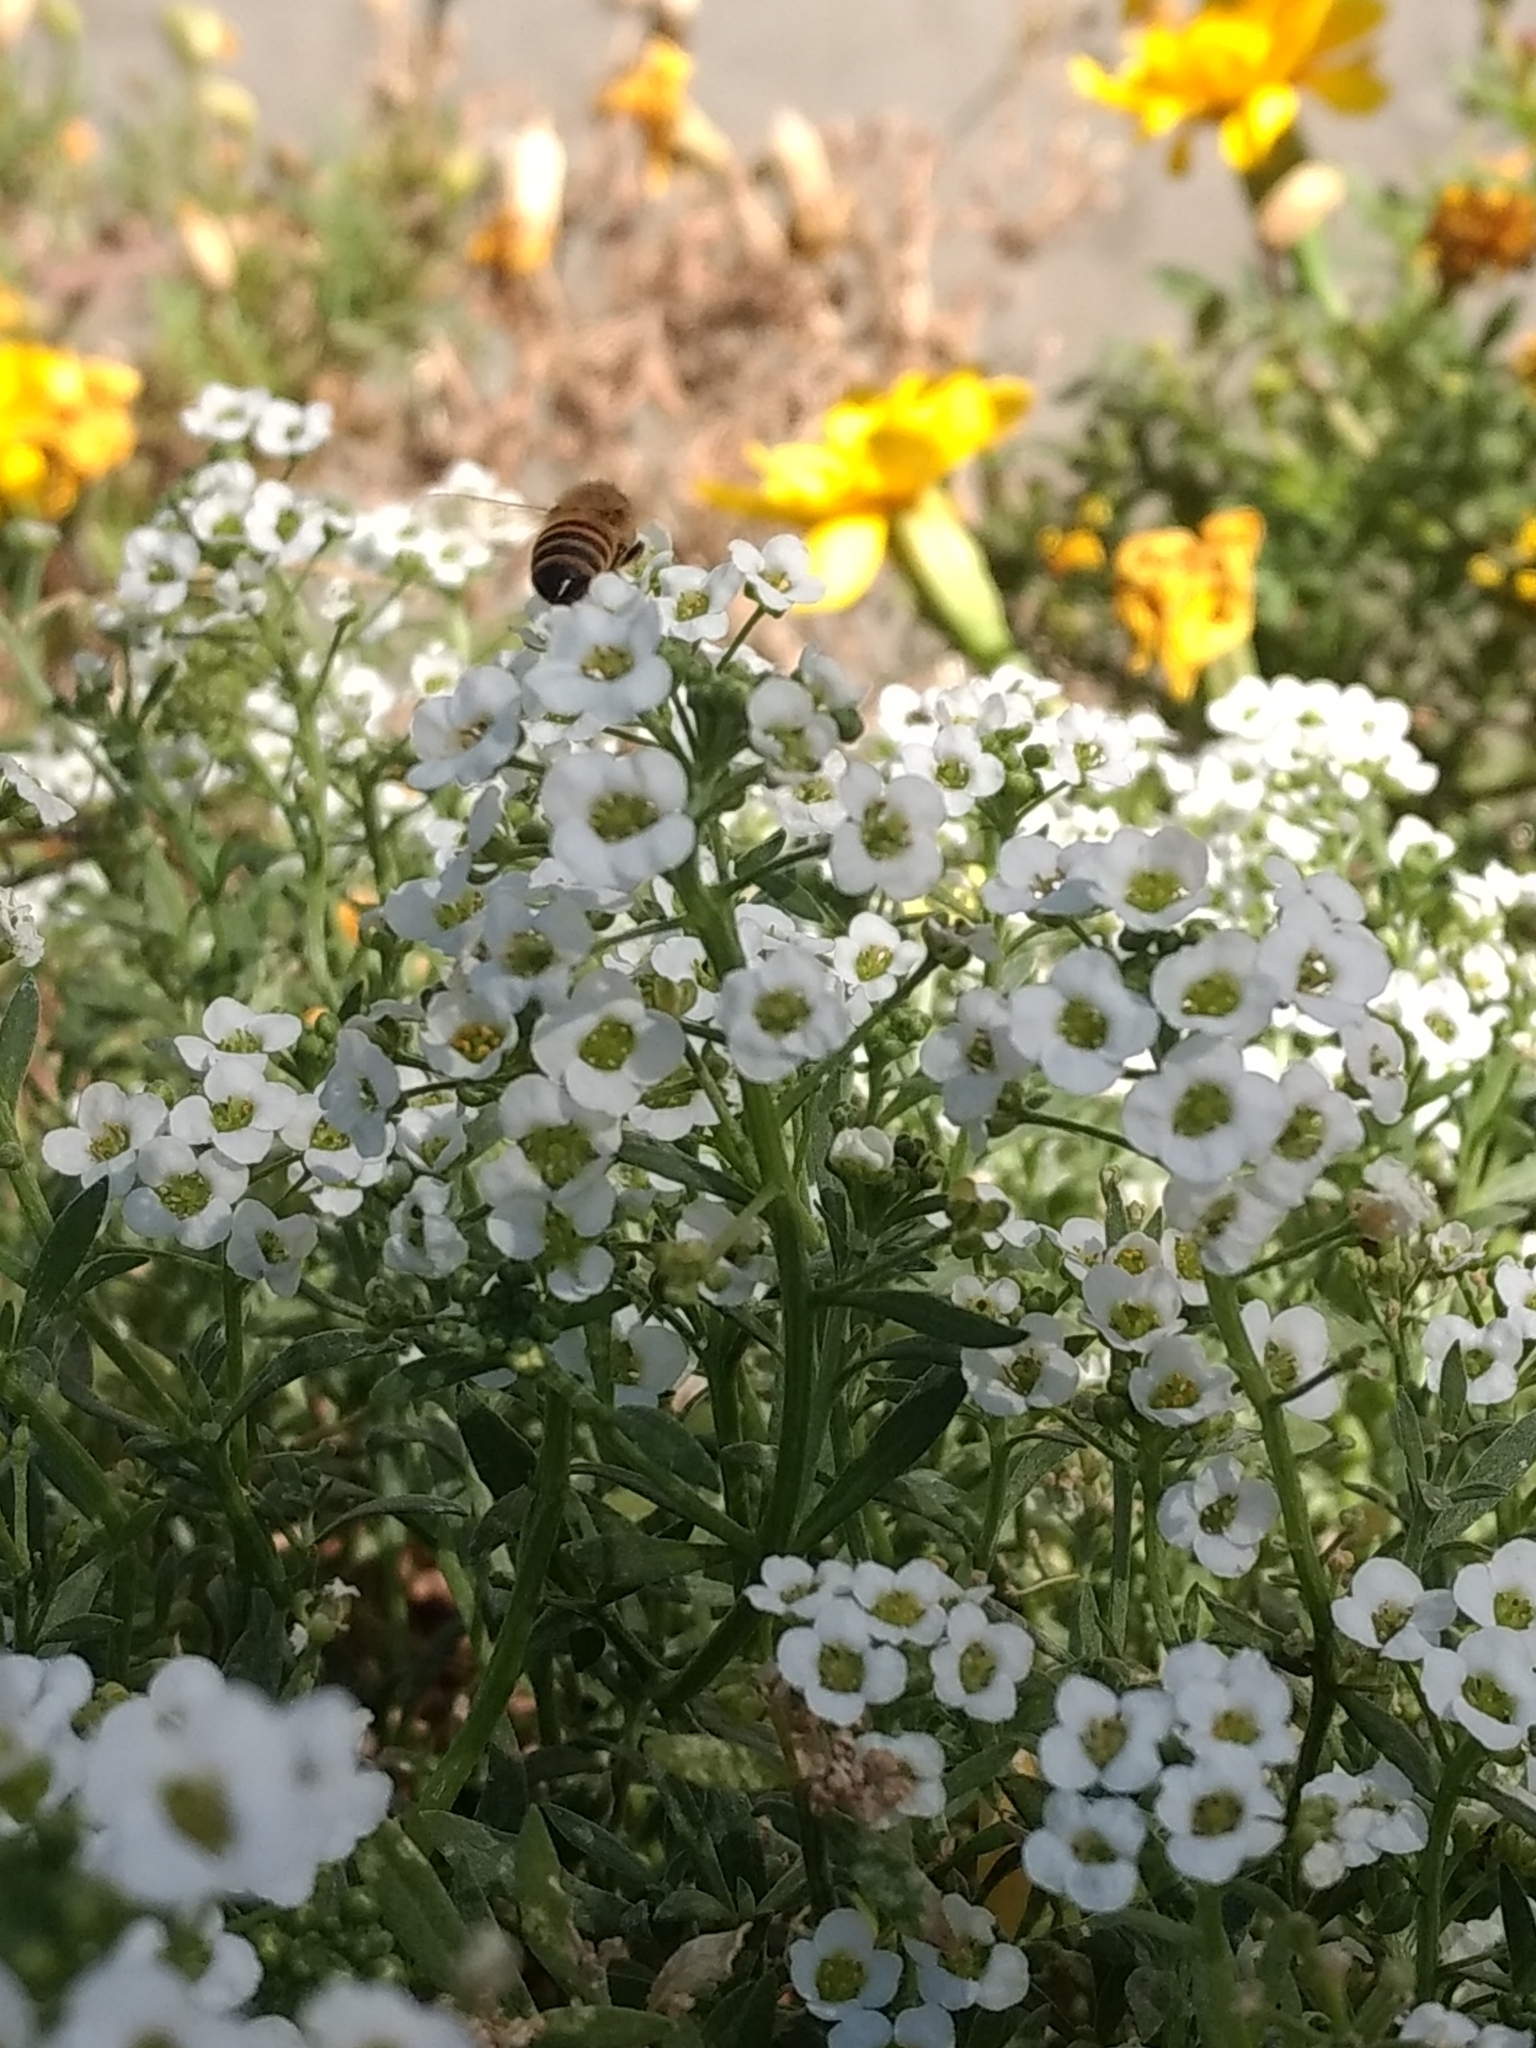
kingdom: Animalia
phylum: Arthropoda
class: Insecta
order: Hymenoptera
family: Apidae
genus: Apis
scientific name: Apis mellifera
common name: Honey bee
